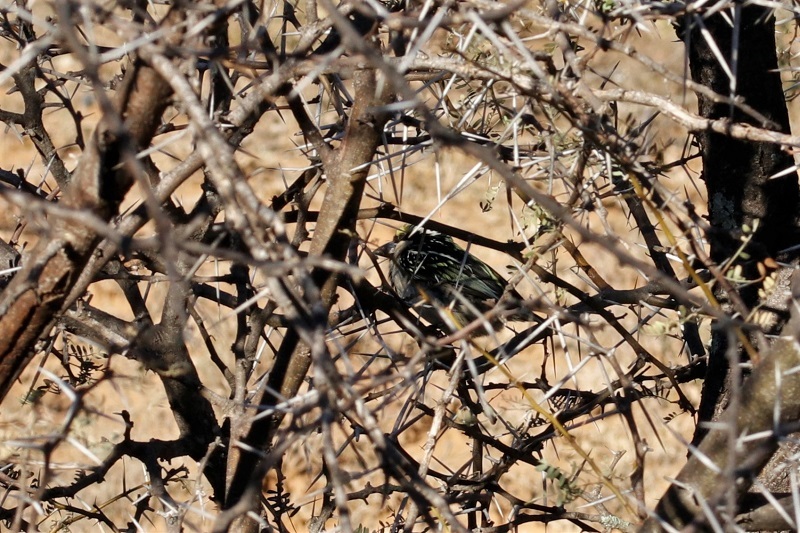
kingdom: Animalia
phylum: Chordata
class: Aves
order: Piciformes
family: Lybiidae
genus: Tricholaema
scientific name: Tricholaema leucomelas
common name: Acacia pied barbet
